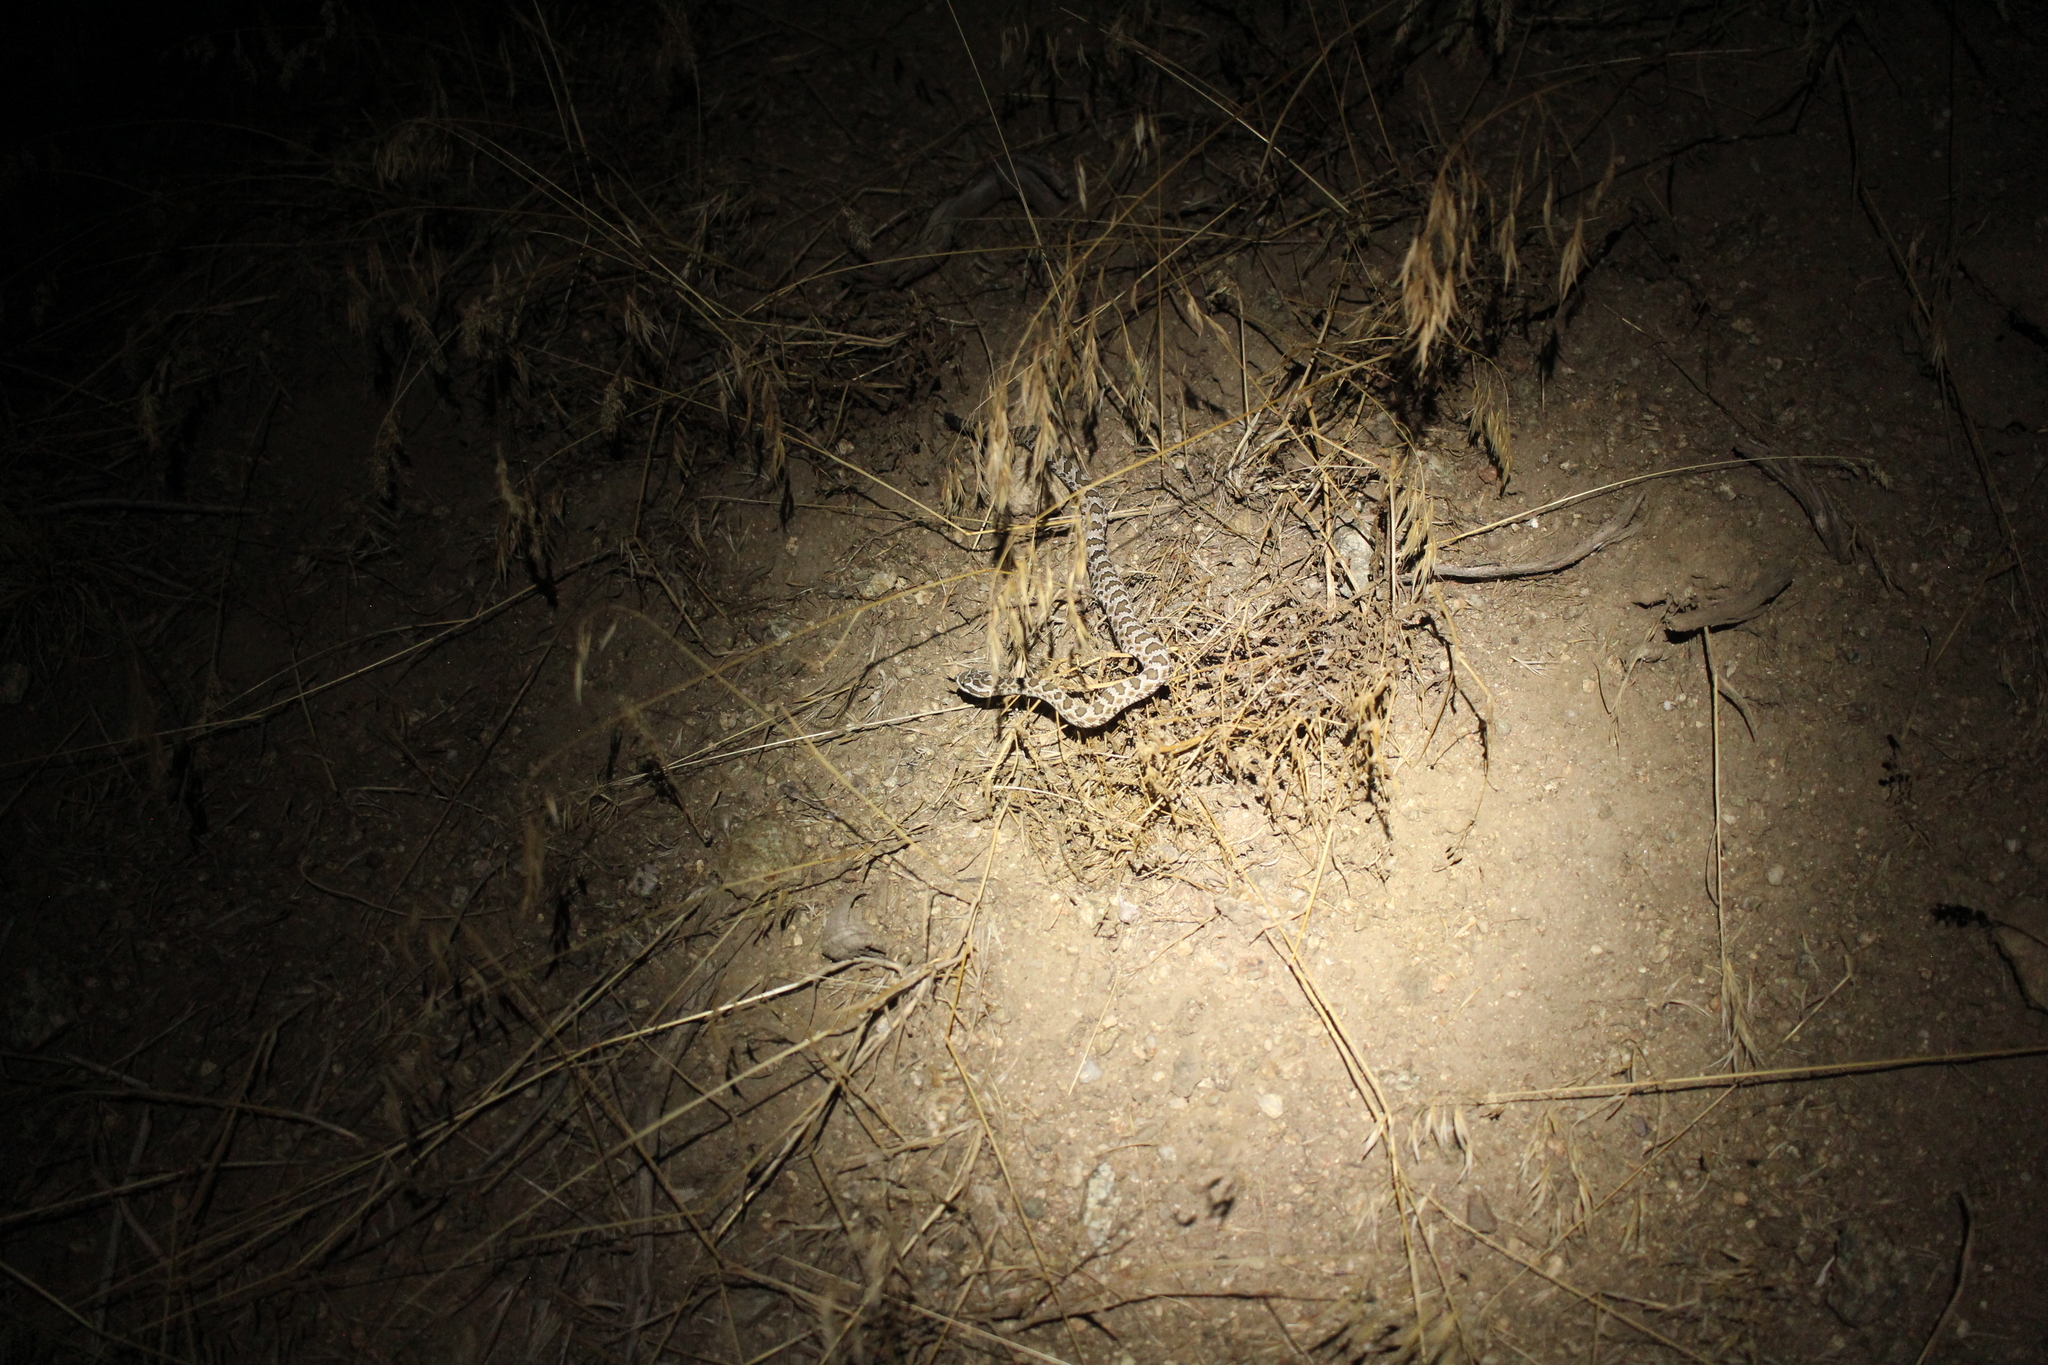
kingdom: Animalia
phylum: Chordata
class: Squamata
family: Viperidae
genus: Crotalus
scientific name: Crotalus oreganus
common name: Abyssus
